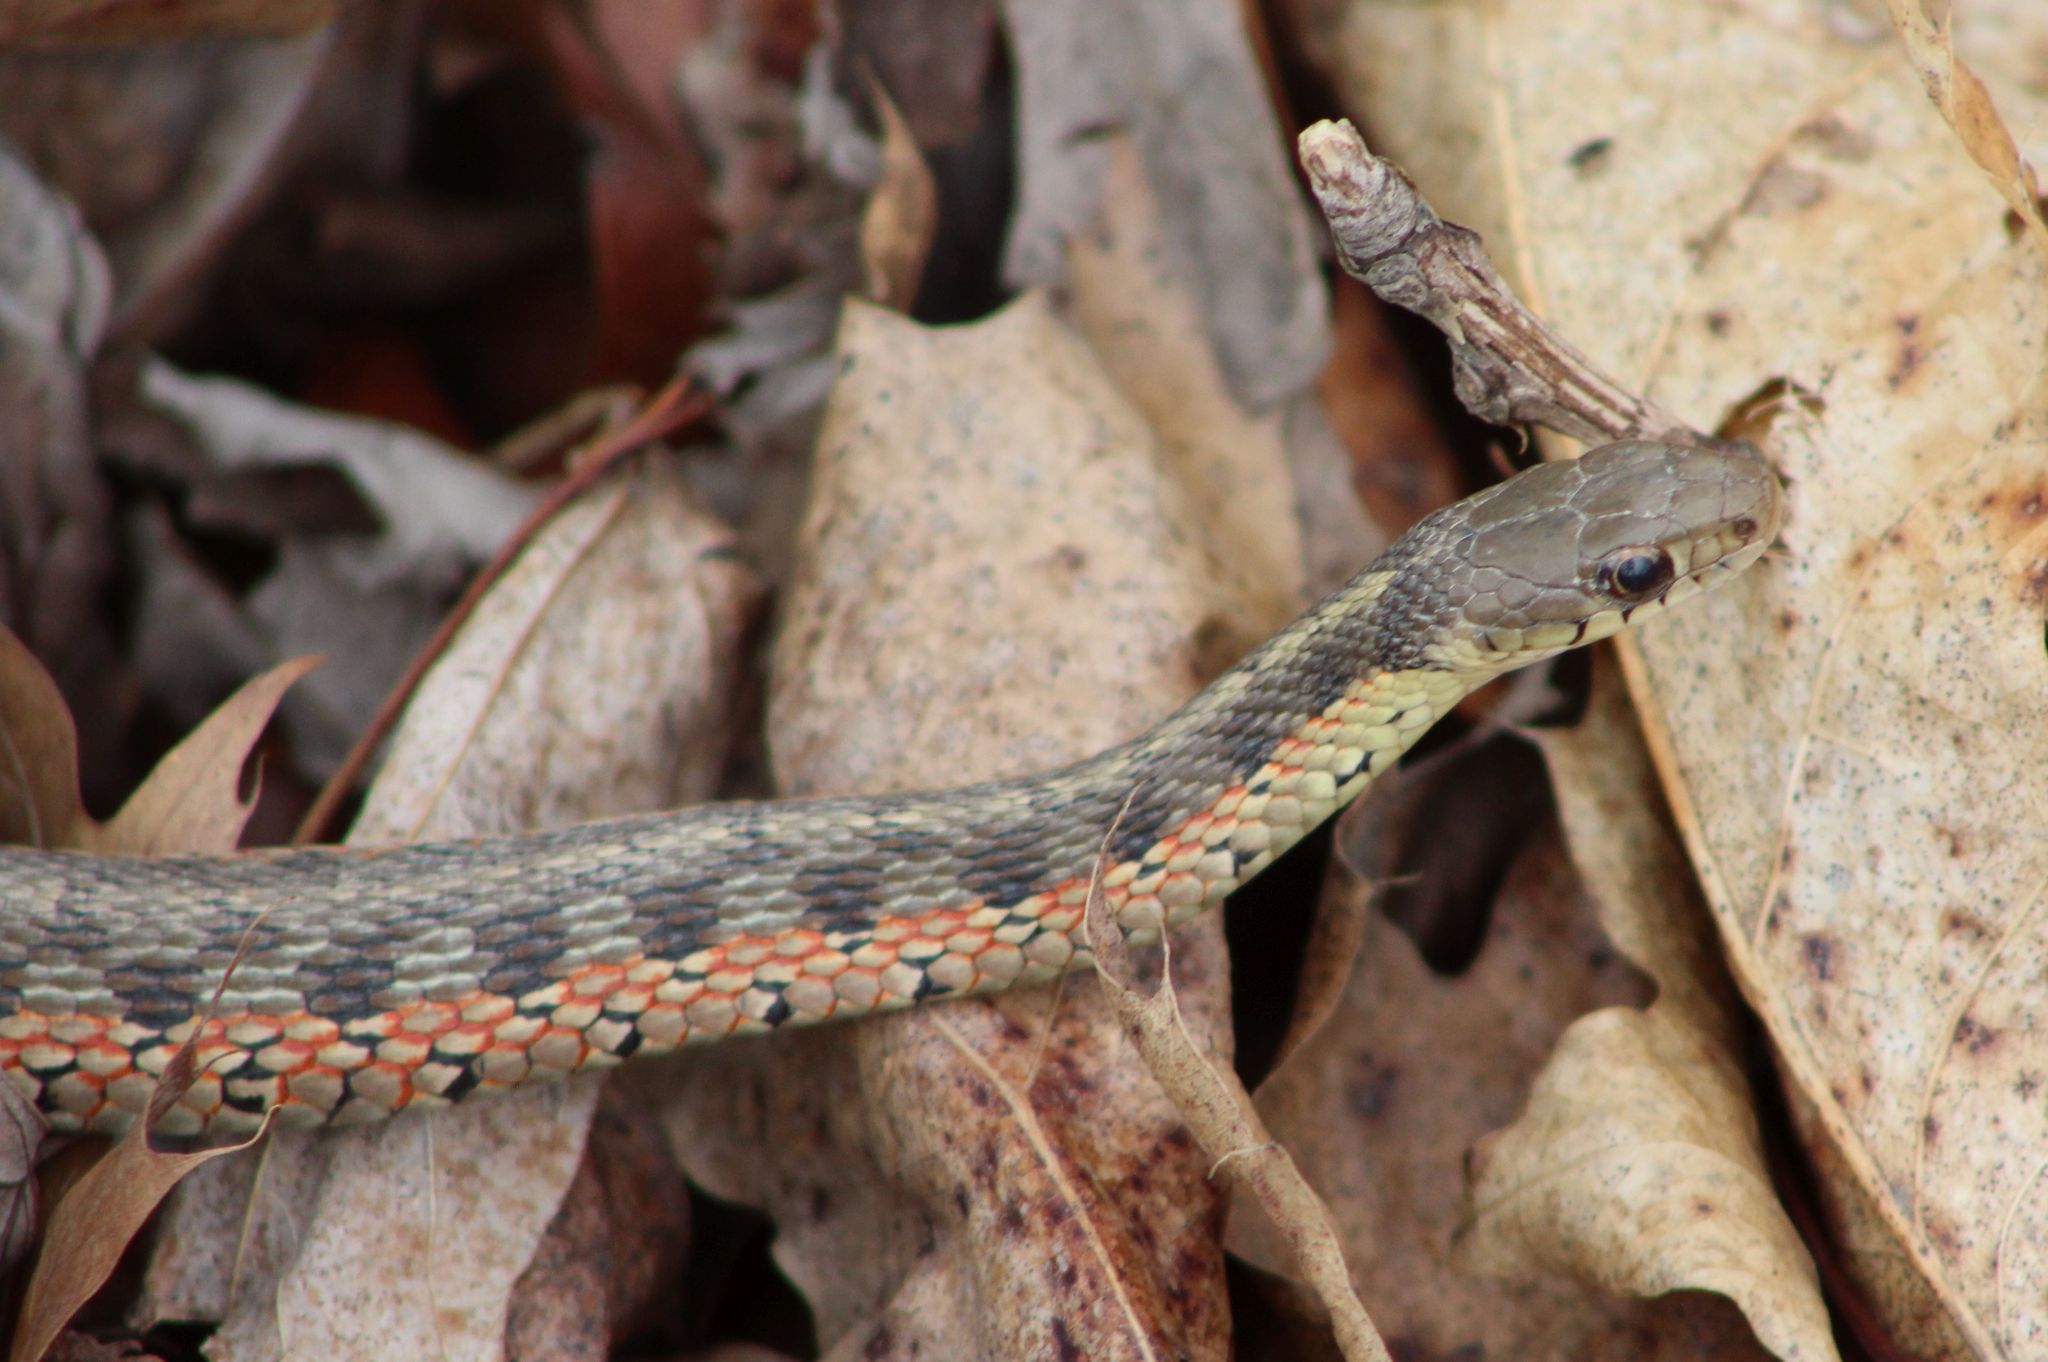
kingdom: Animalia
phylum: Chordata
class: Squamata
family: Colubridae
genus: Thamnophis
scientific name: Thamnophis sirtalis
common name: Common garter snake
